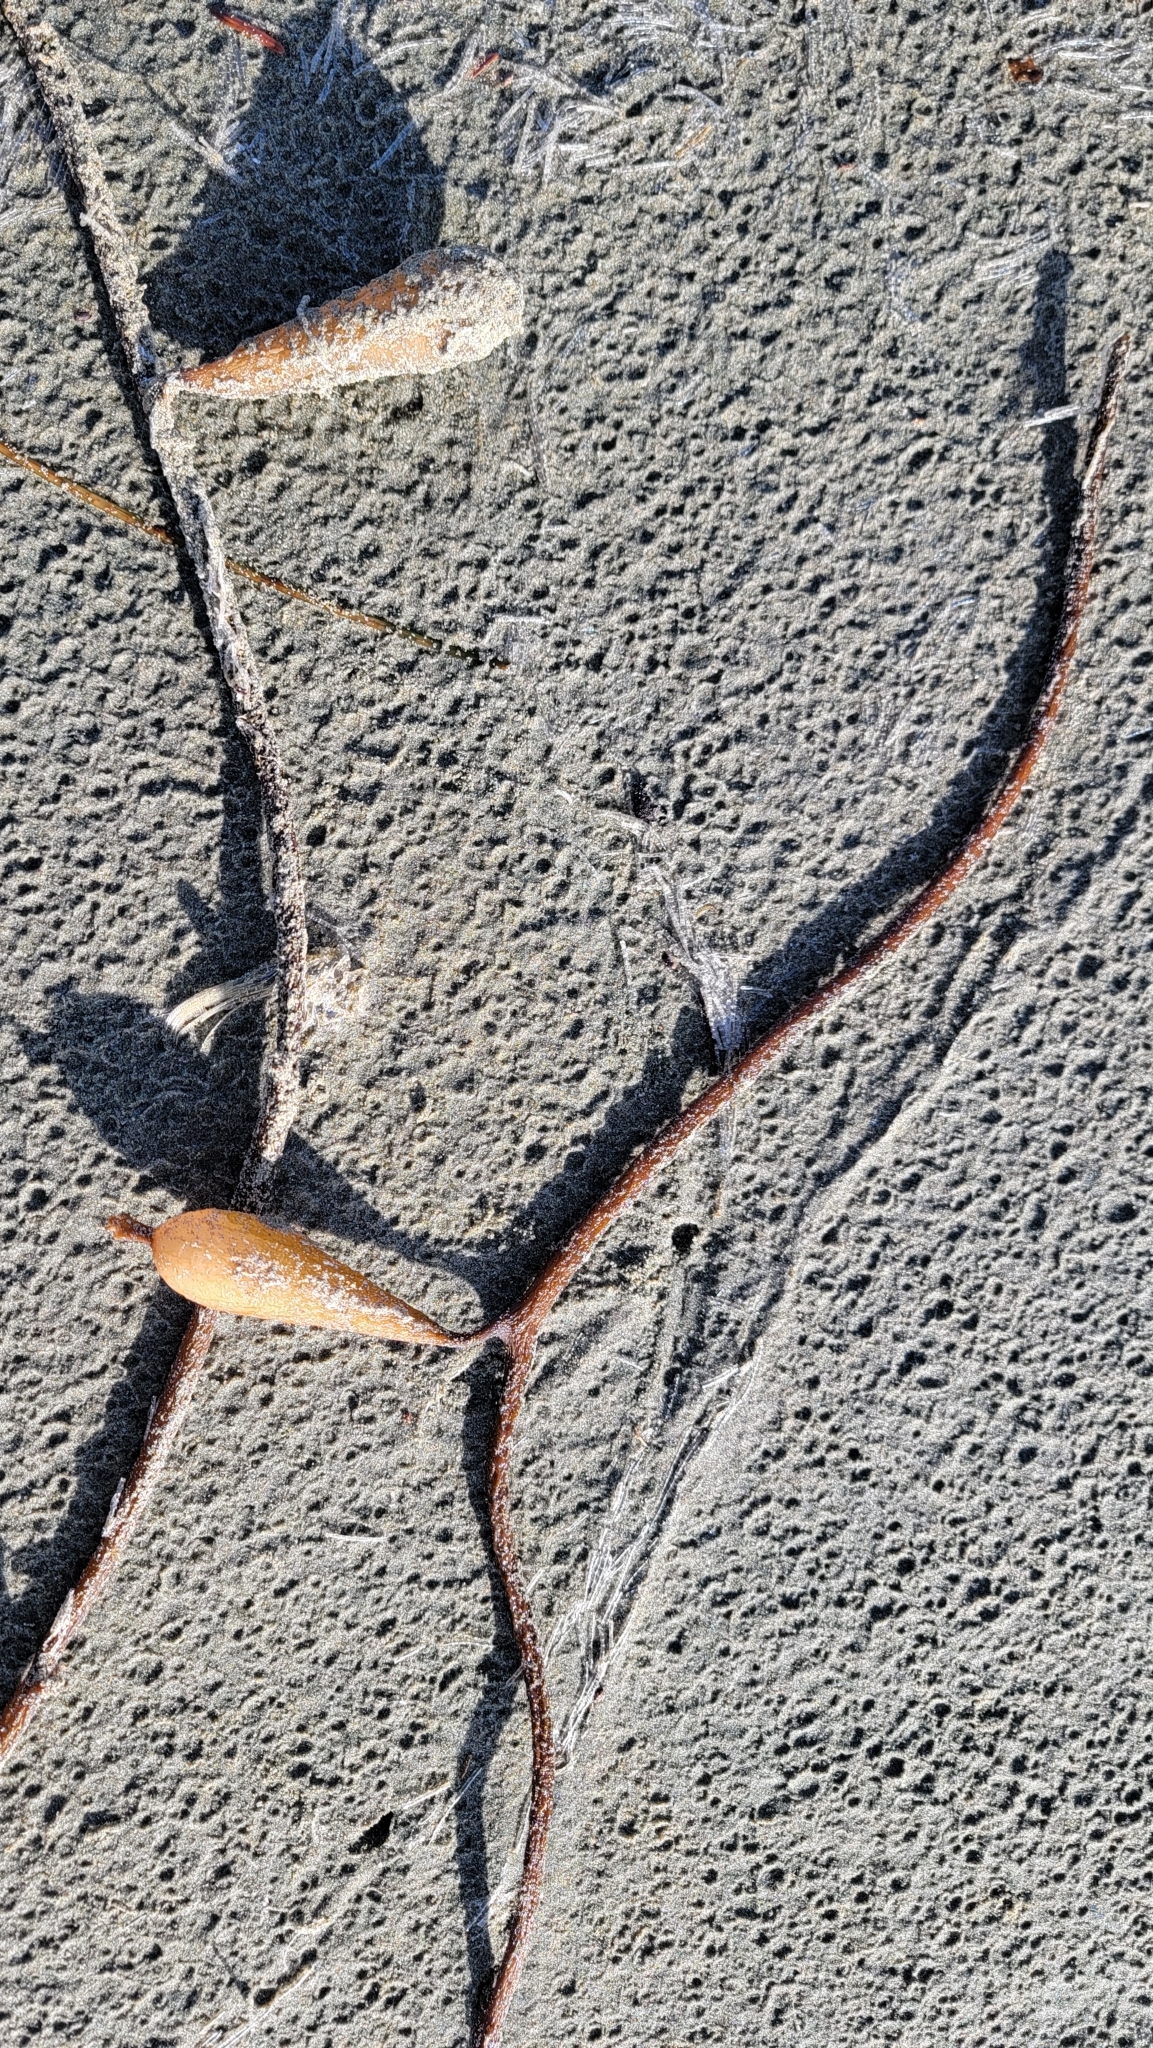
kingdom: Chromista
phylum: Ochrophyta
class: Phaeophyceae
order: Laminariales
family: Laminariaceae
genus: Macrocystis
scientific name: Macrocystis pyrifera
